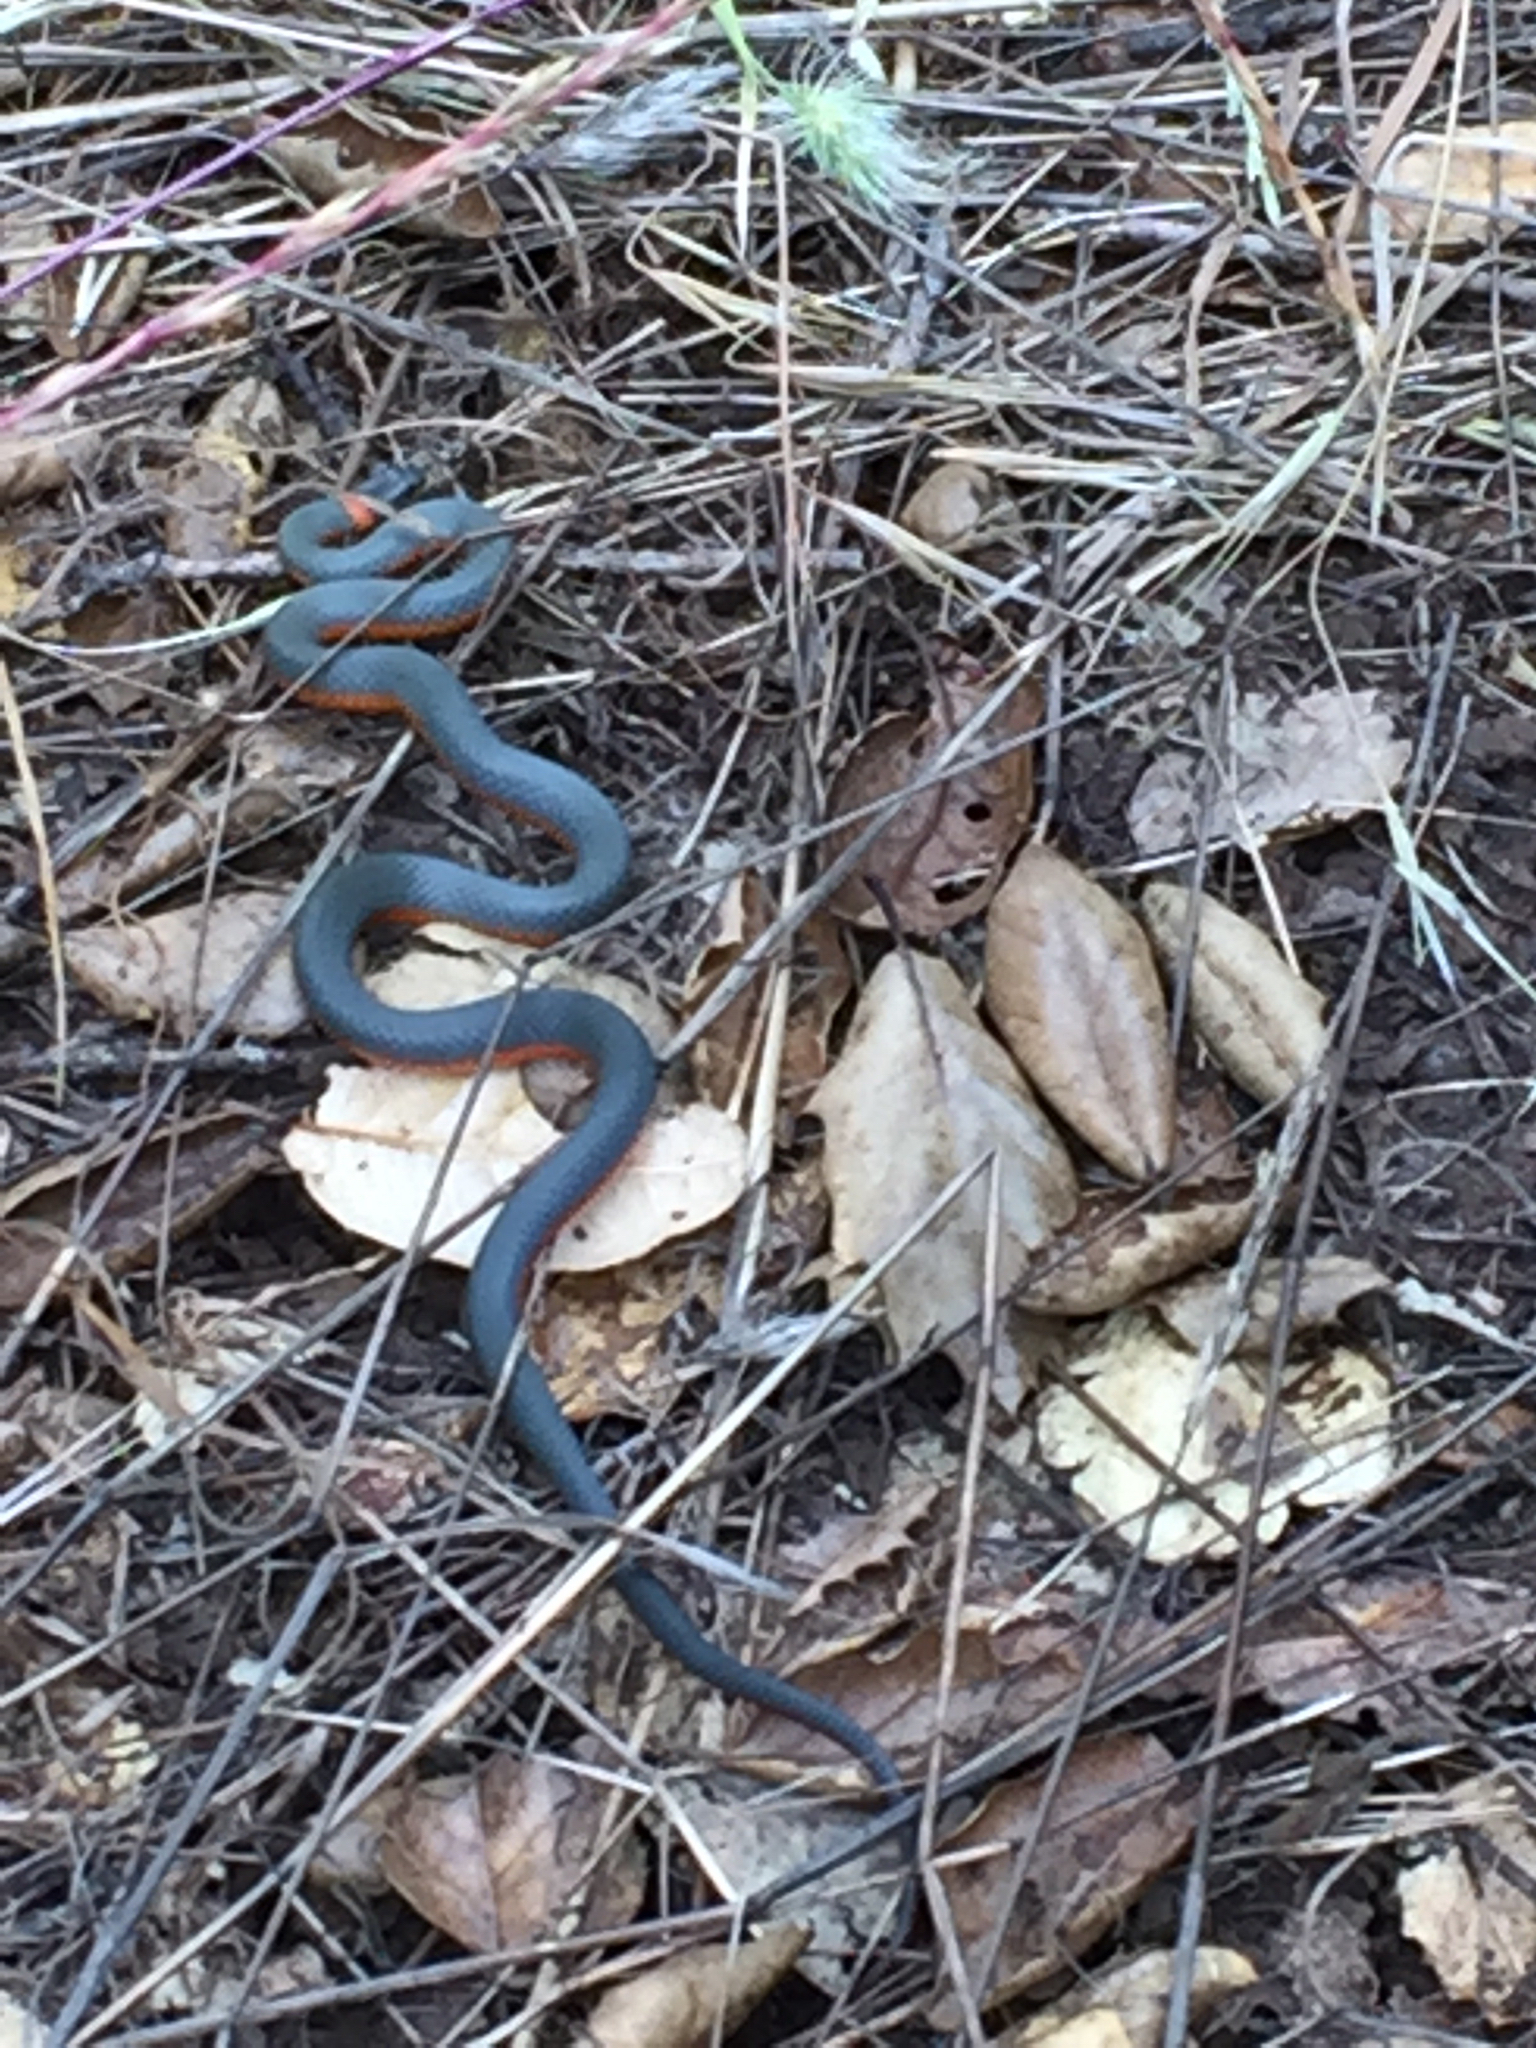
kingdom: Animalia
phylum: Chordata
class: Squamata
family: Colubridae
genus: Diadophis
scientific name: Diadophis punctatus
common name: Ringneck snake
